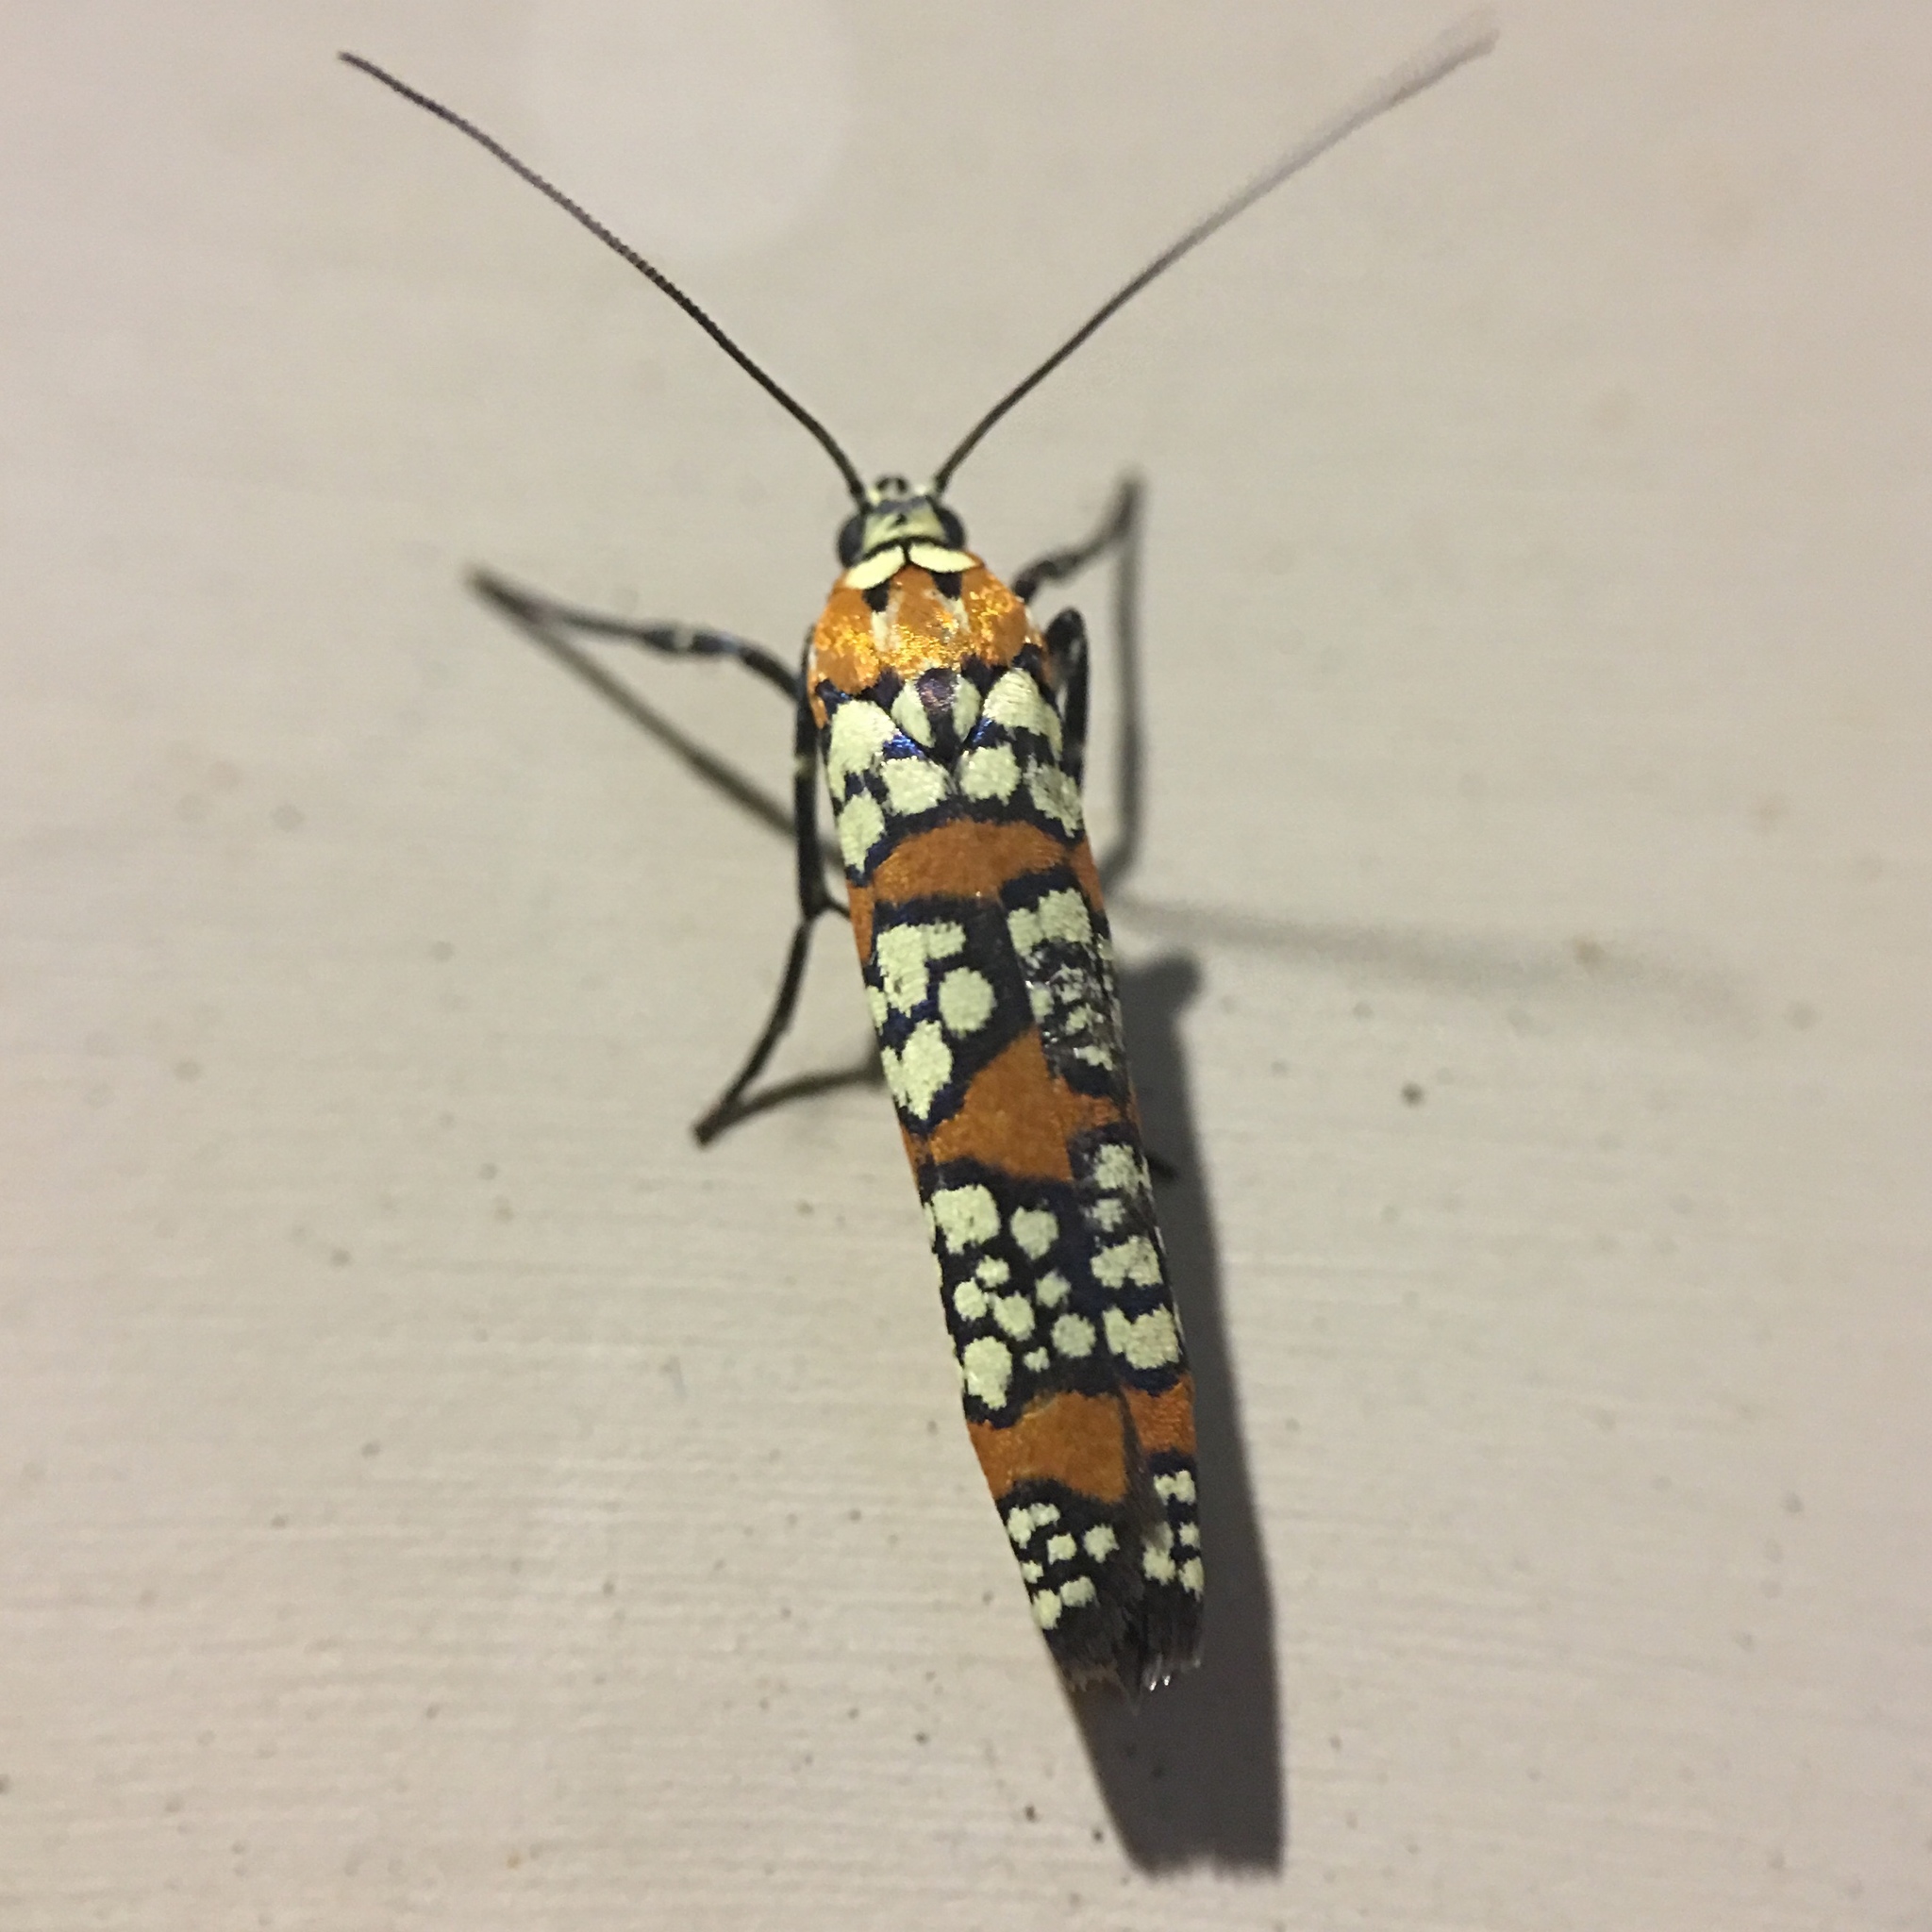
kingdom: Animalia
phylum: Arthropoda
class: Insecta
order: Lepidoptera
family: Attevidae
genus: Atteva
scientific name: Atteva punctella
